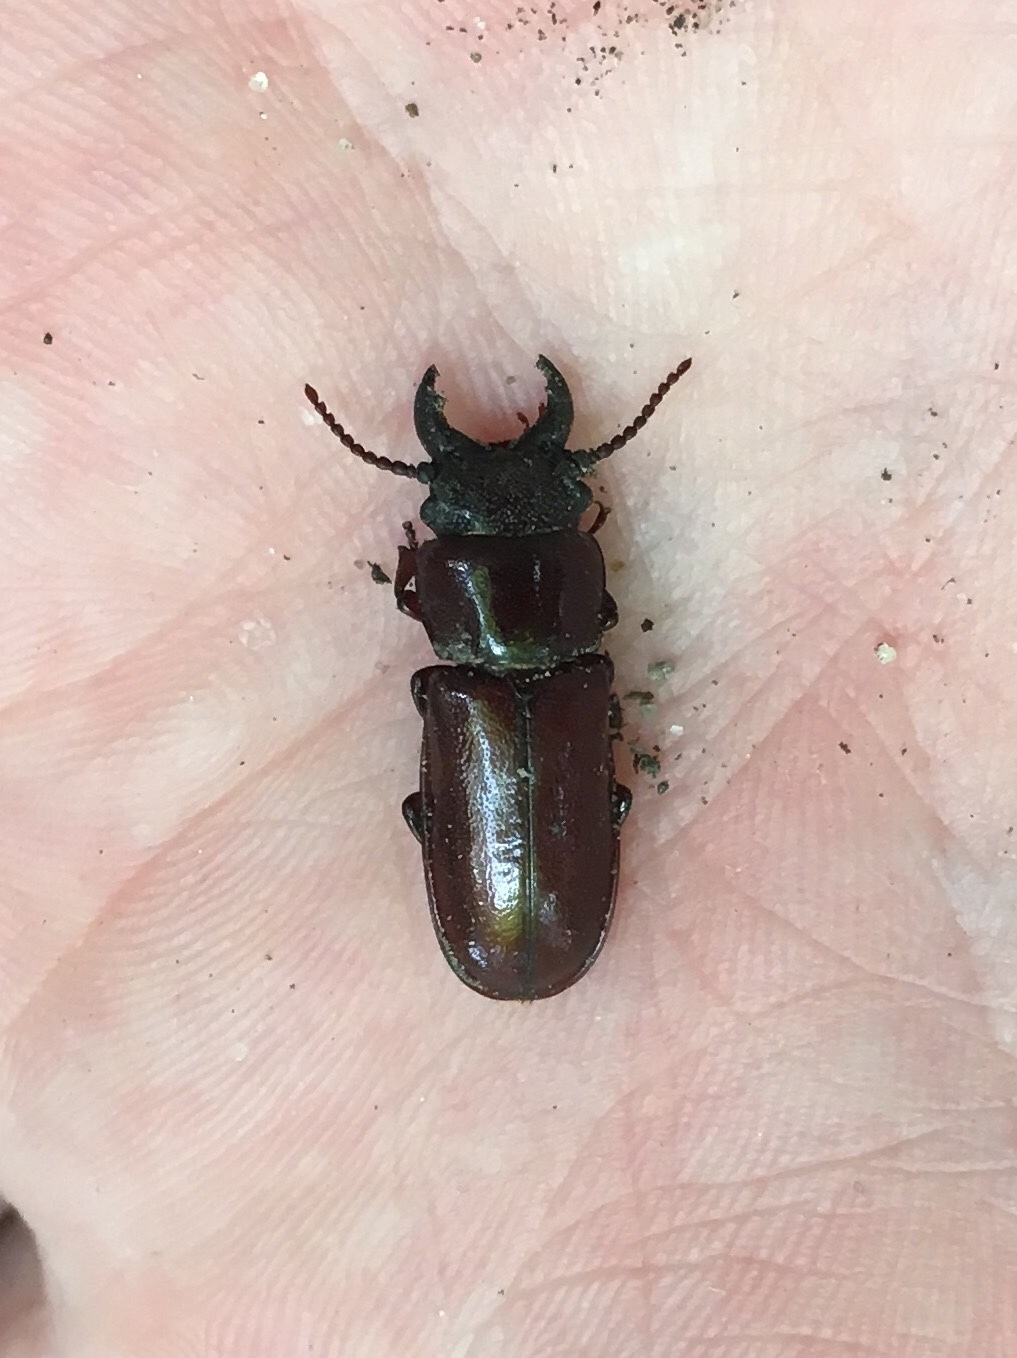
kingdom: Animalia
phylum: Arthropoda
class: Insecta
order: Coleoptera
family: Cerambycidae
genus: Neandra
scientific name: Neandra brunnea
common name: Pole borer
